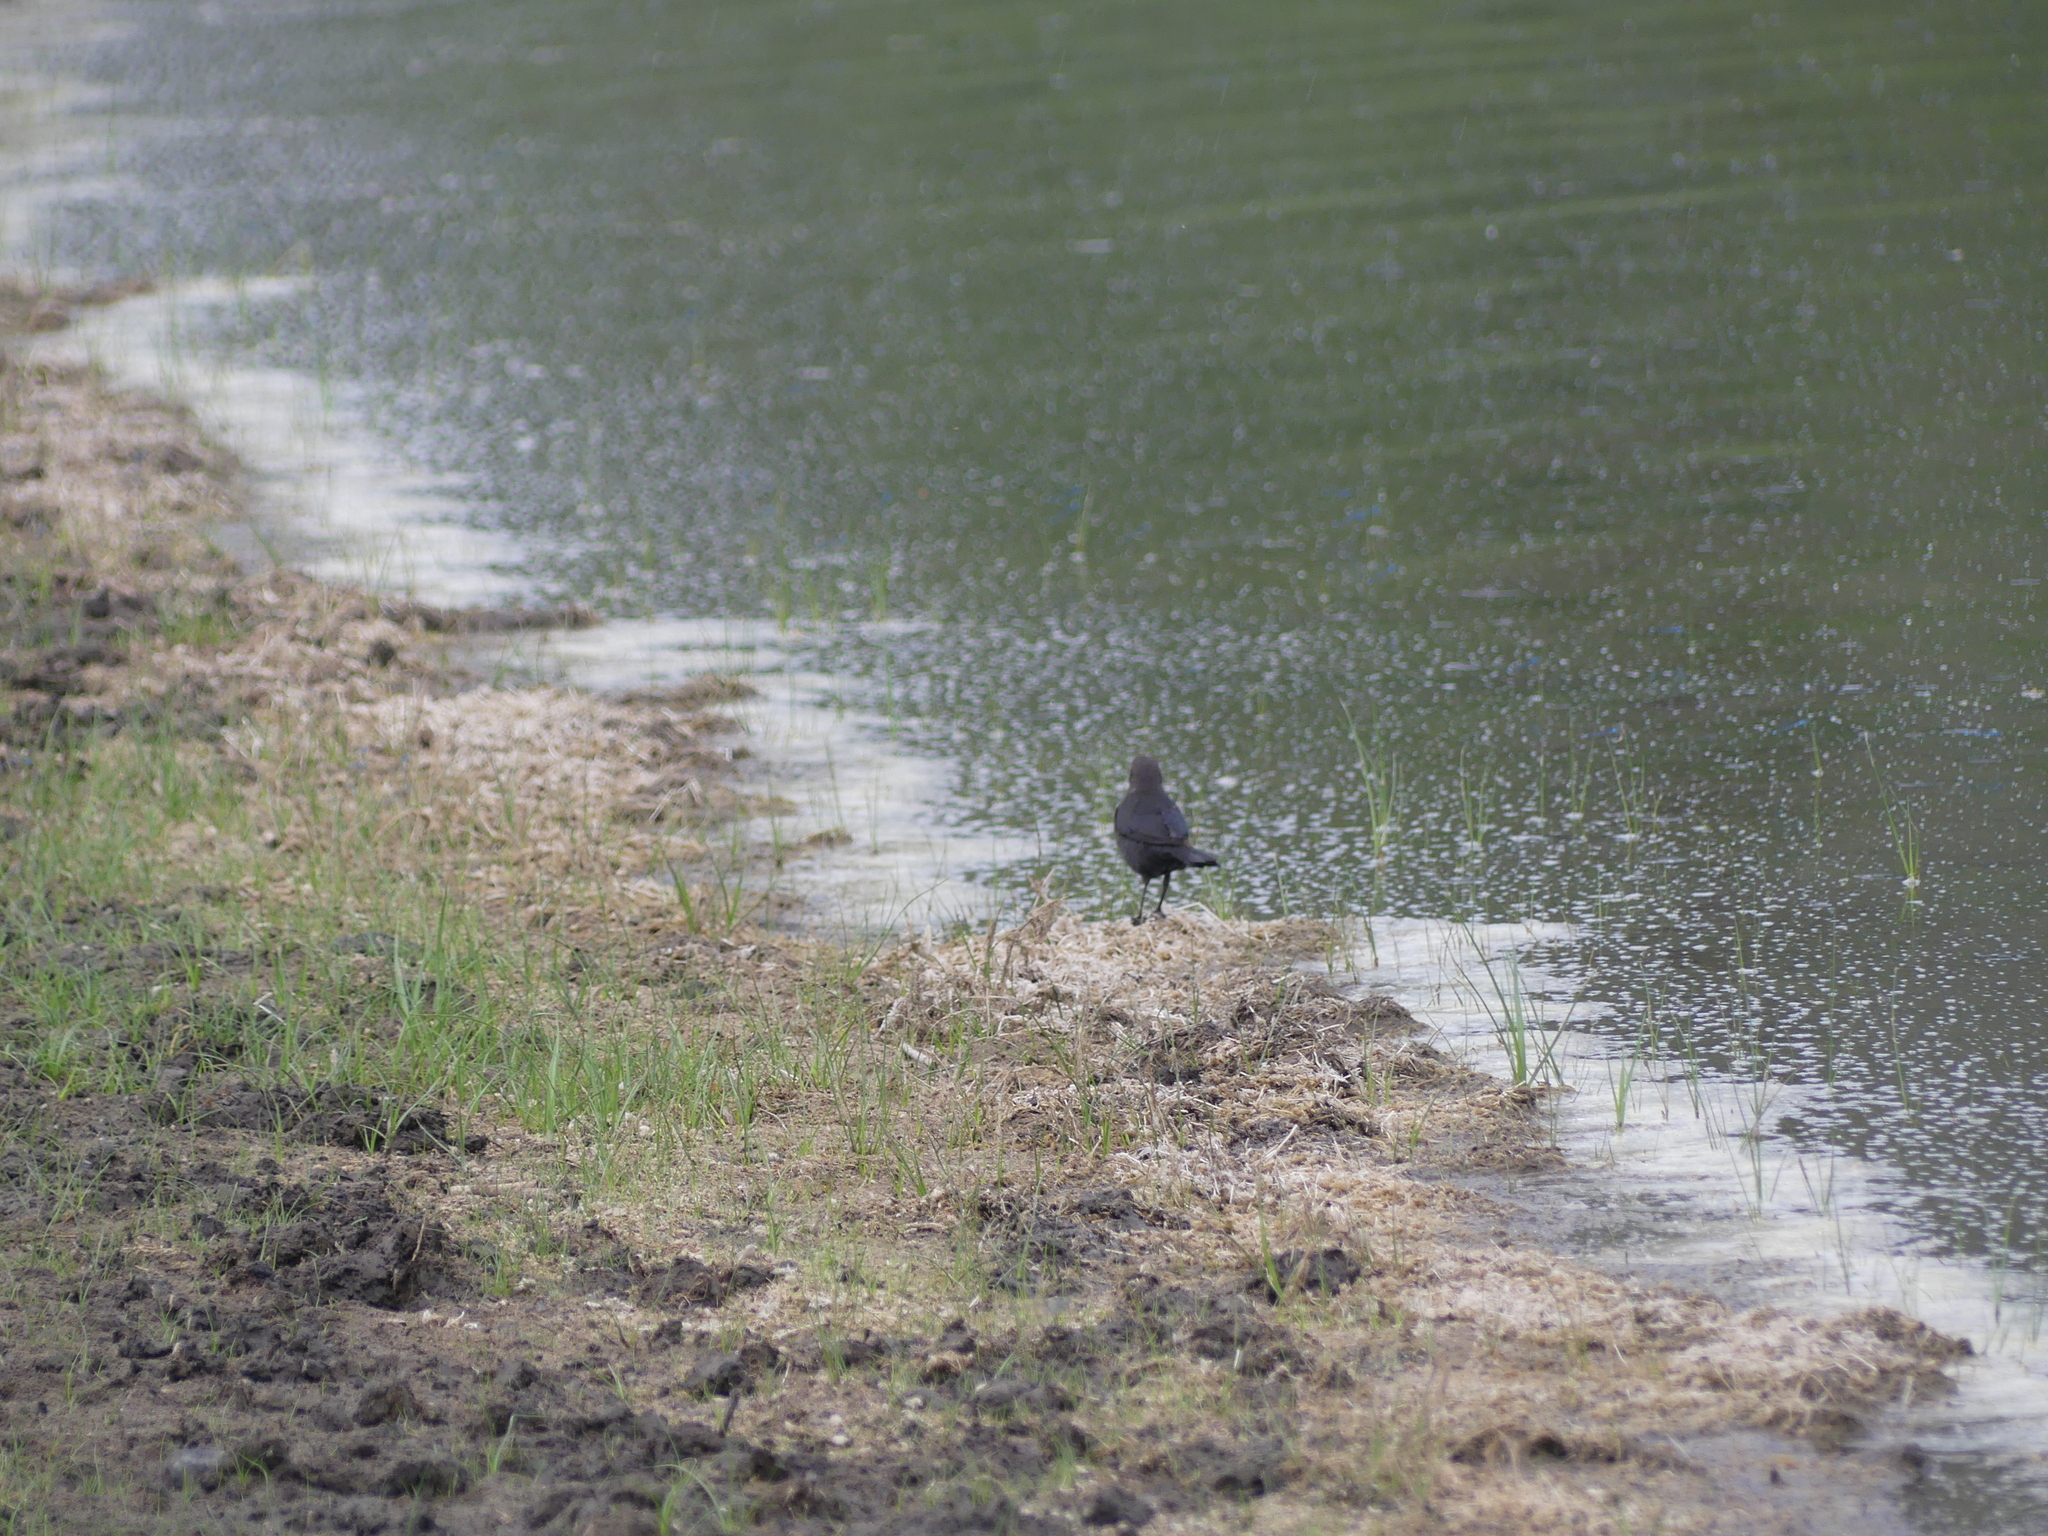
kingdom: Animalia
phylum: Chordata
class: Aves
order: Passeriformes
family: Icteridae
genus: Euphagus
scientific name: Euphagus cyanocephalus
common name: Brewer's blackbird
